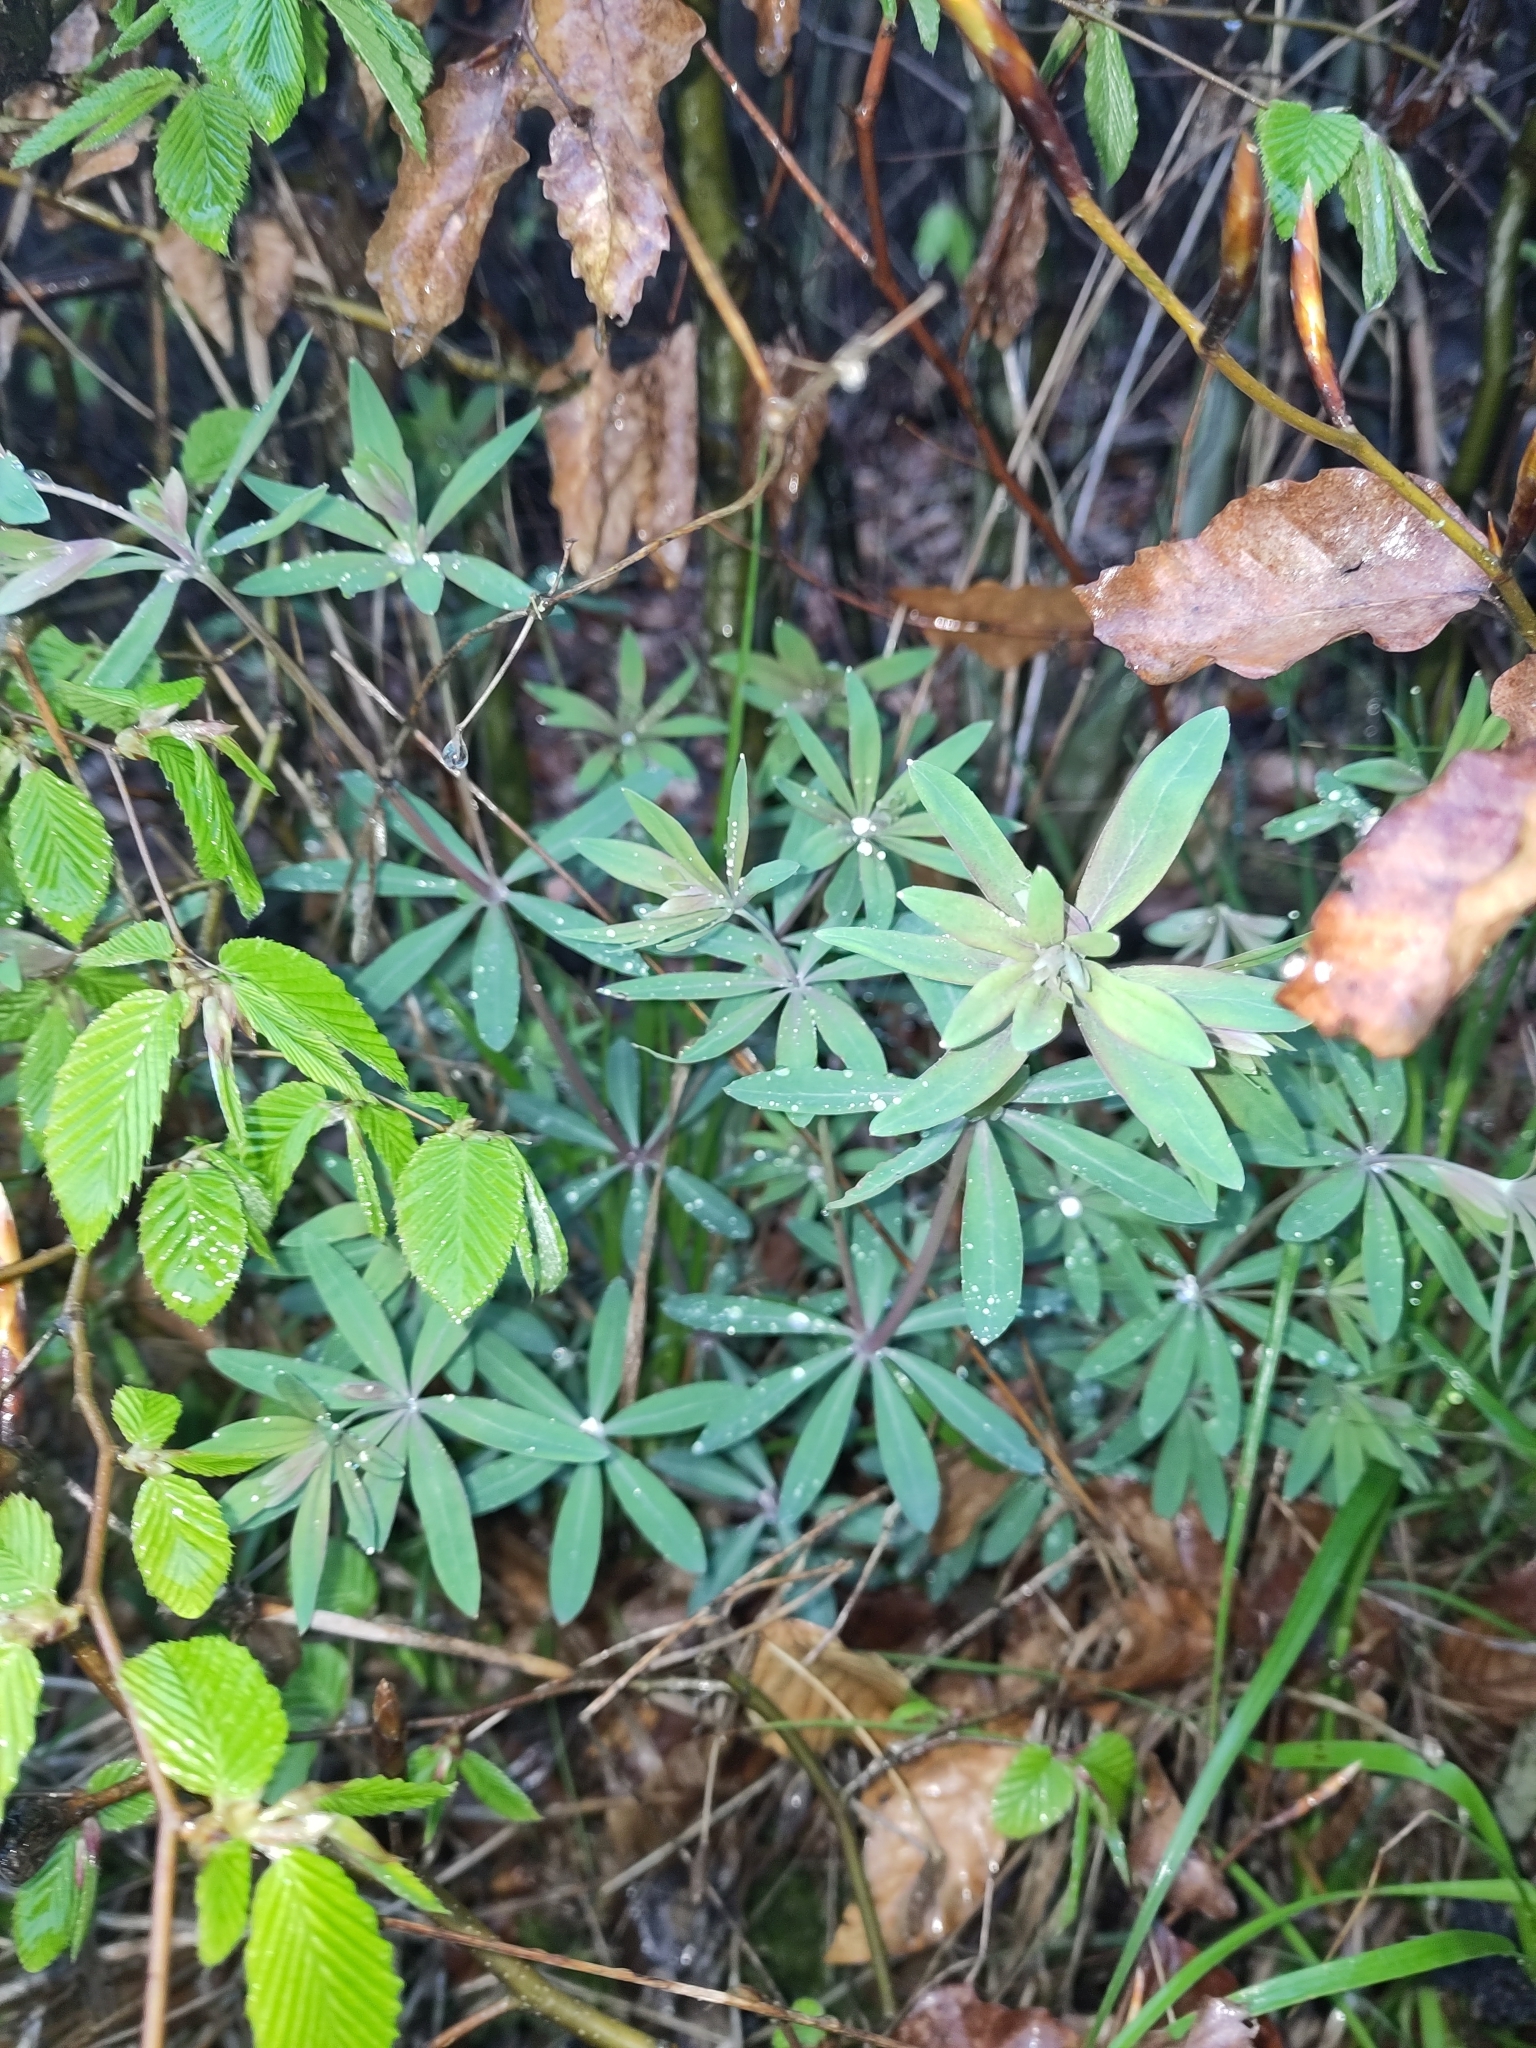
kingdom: Plantae
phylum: Tracheophyta
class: Magnoliopsida
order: Gentianales
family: Rubiaceae
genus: Galium
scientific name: Galium sylvaticum
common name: Wood bedstraw
